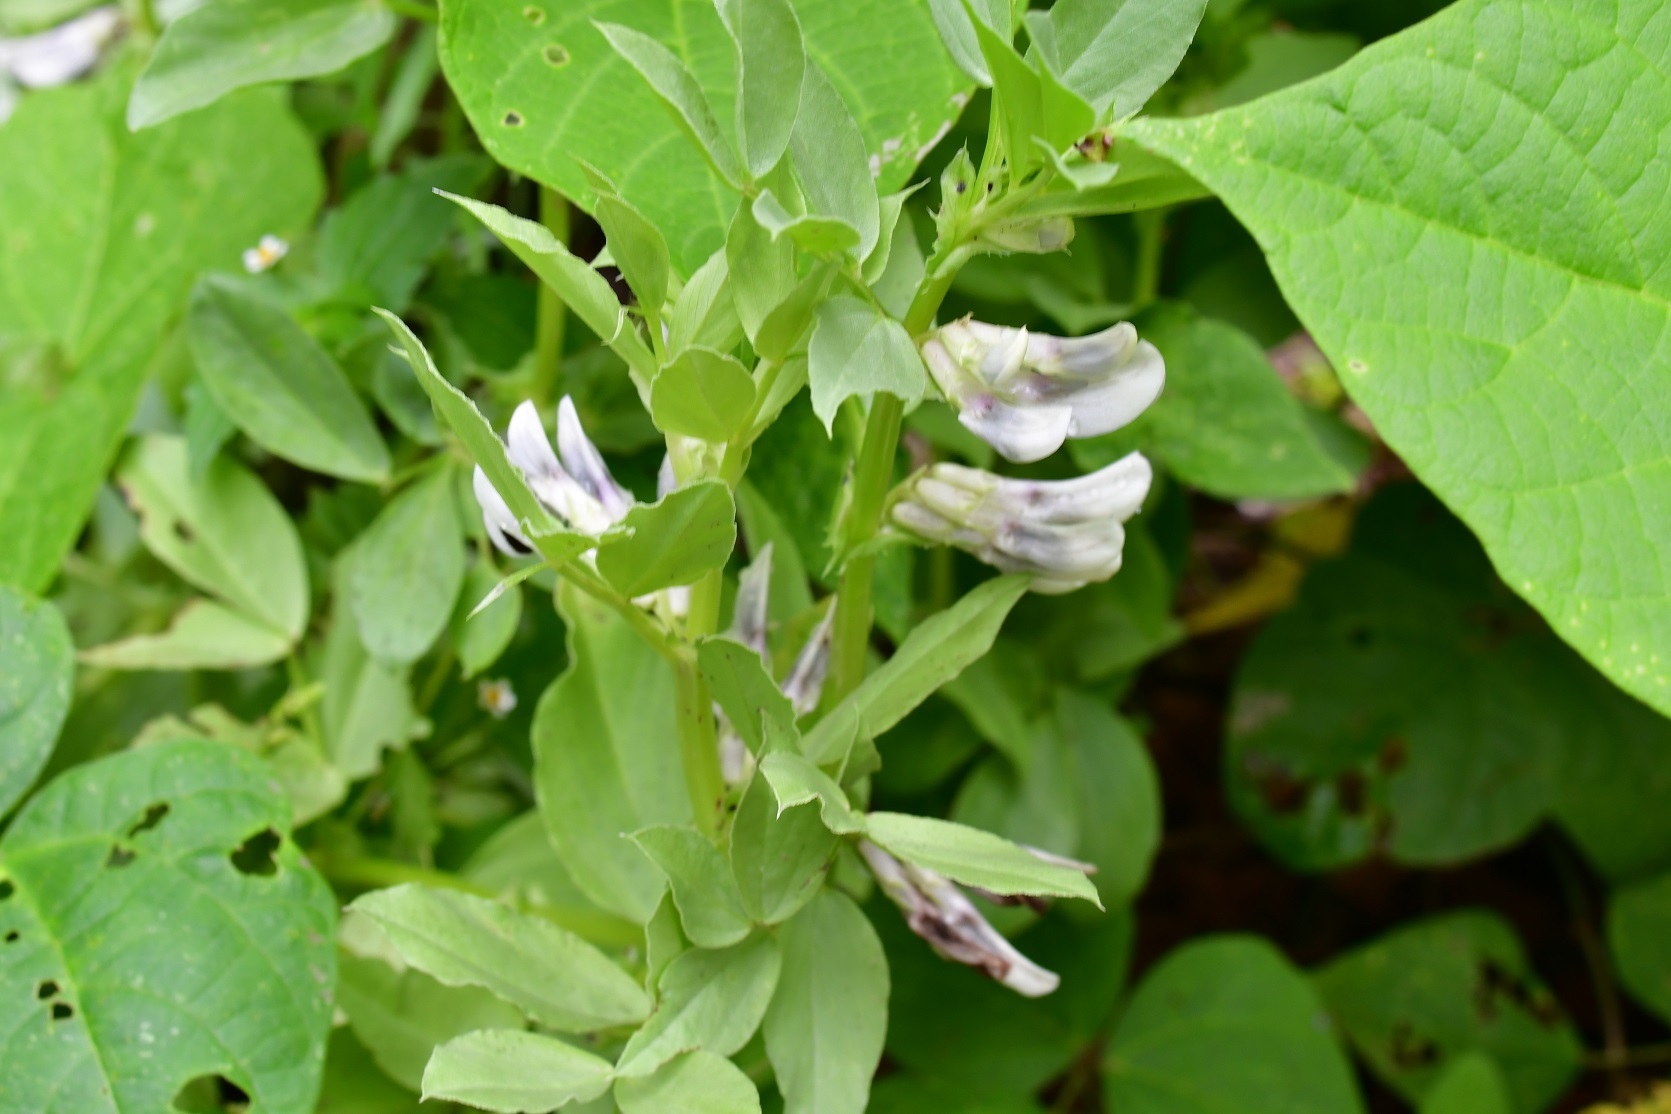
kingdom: Plantae
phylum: Tracheophyta
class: Magnoliopsida
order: Fabales
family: Fabaceae
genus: Vicia
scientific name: Vicia faba
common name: Broad bean
